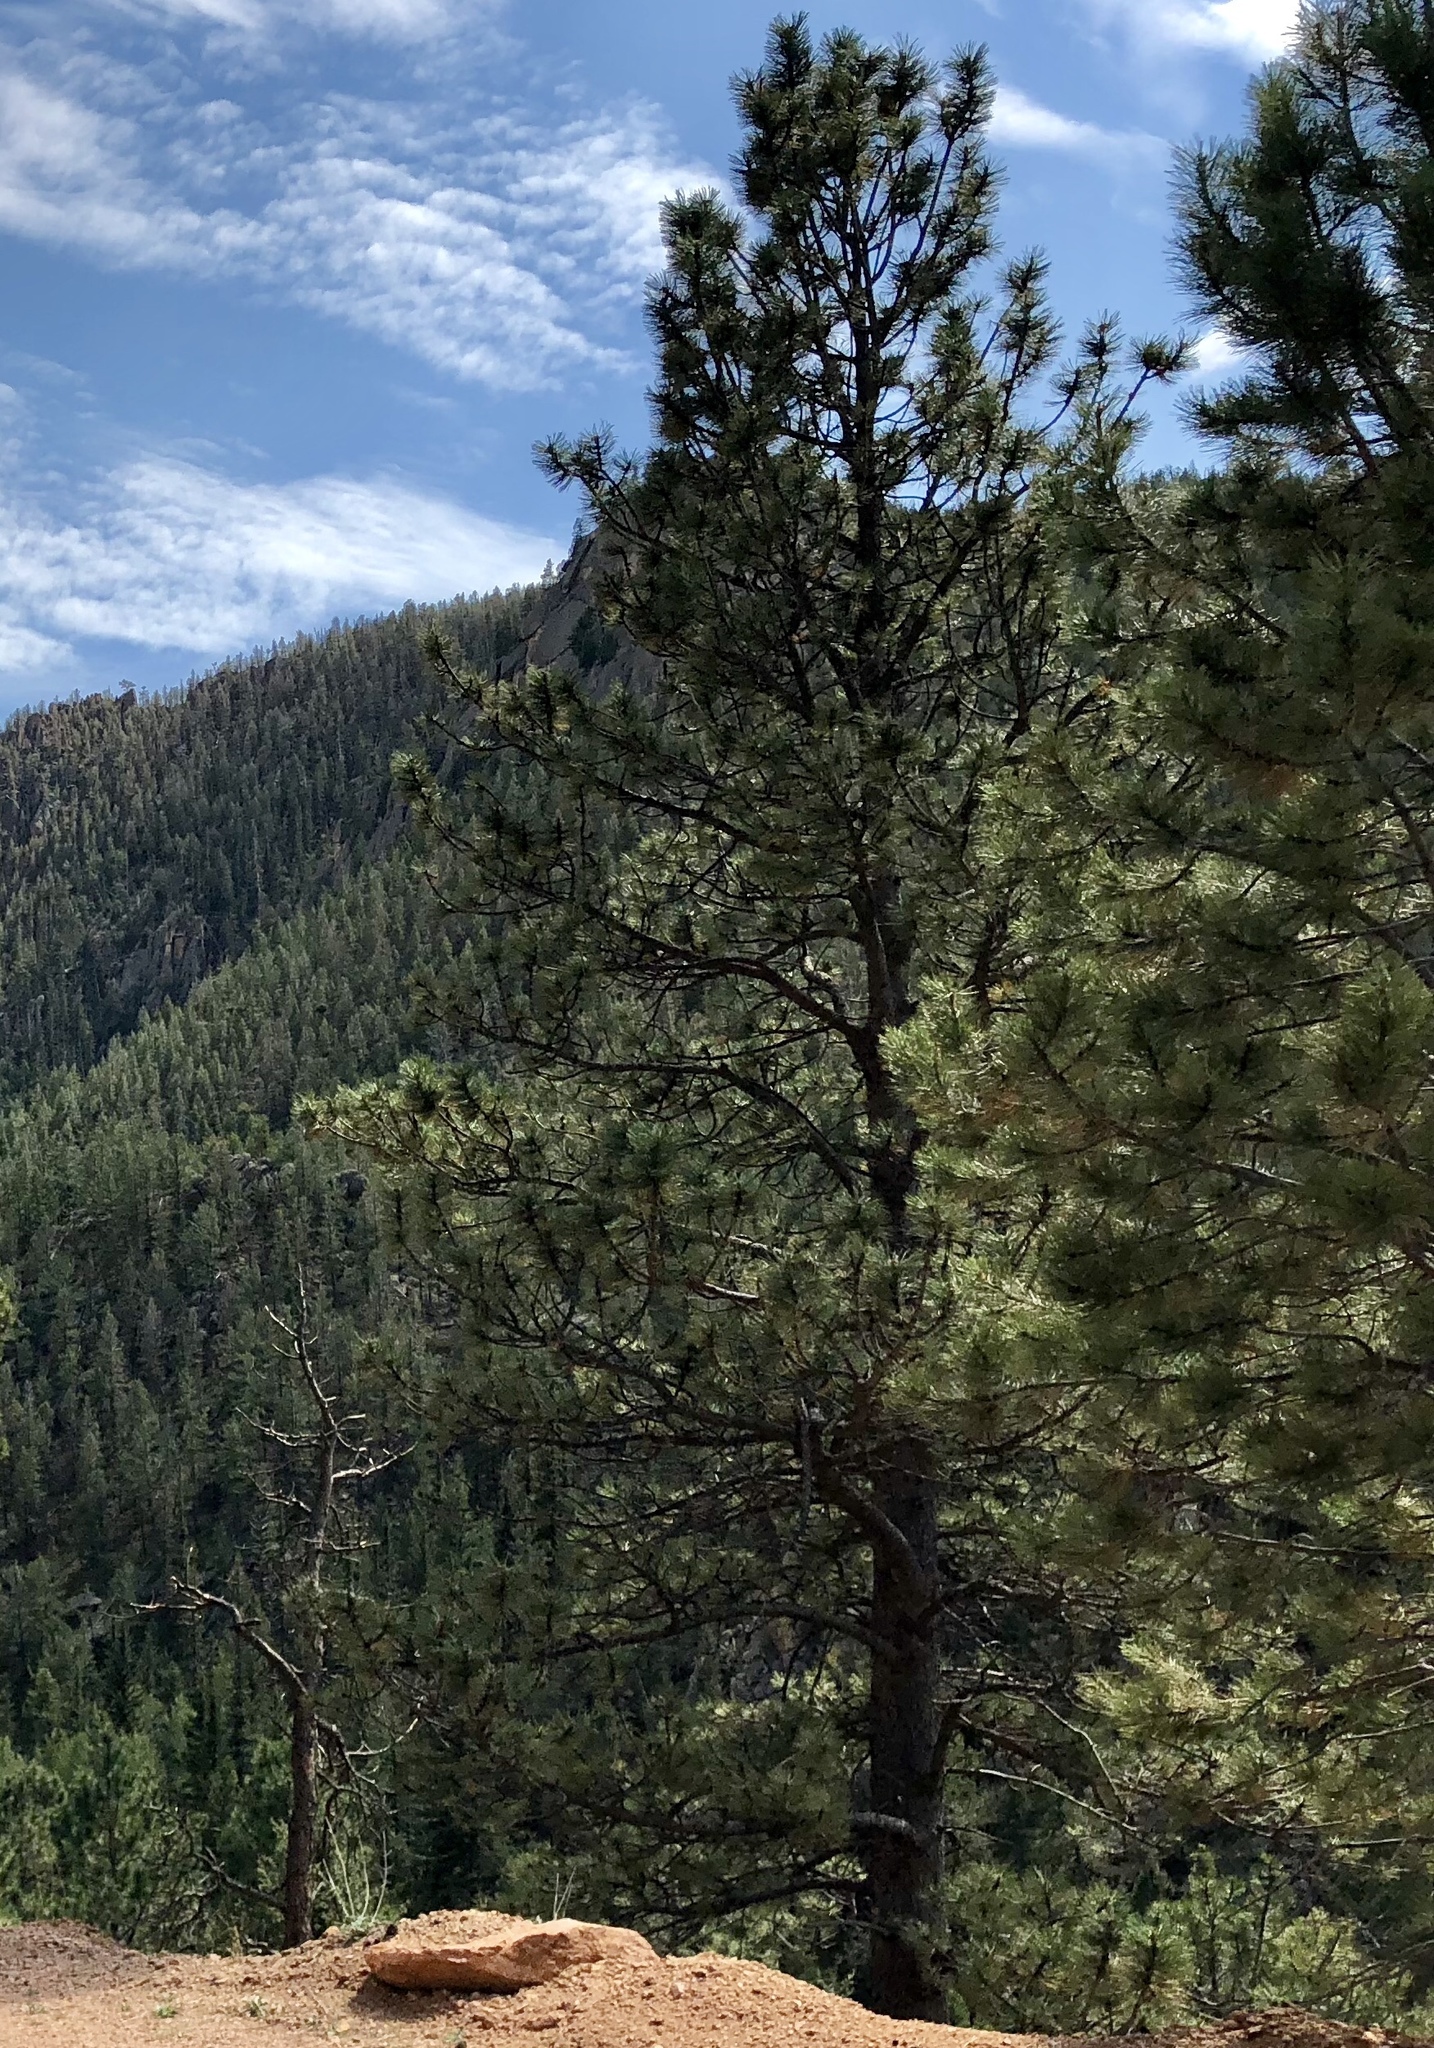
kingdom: Plantae
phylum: Tracheophyta
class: Pinopsida
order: Pinales
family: Pinaceae
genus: Pinus
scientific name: Pinus ponderosa
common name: Western yellow-pine
